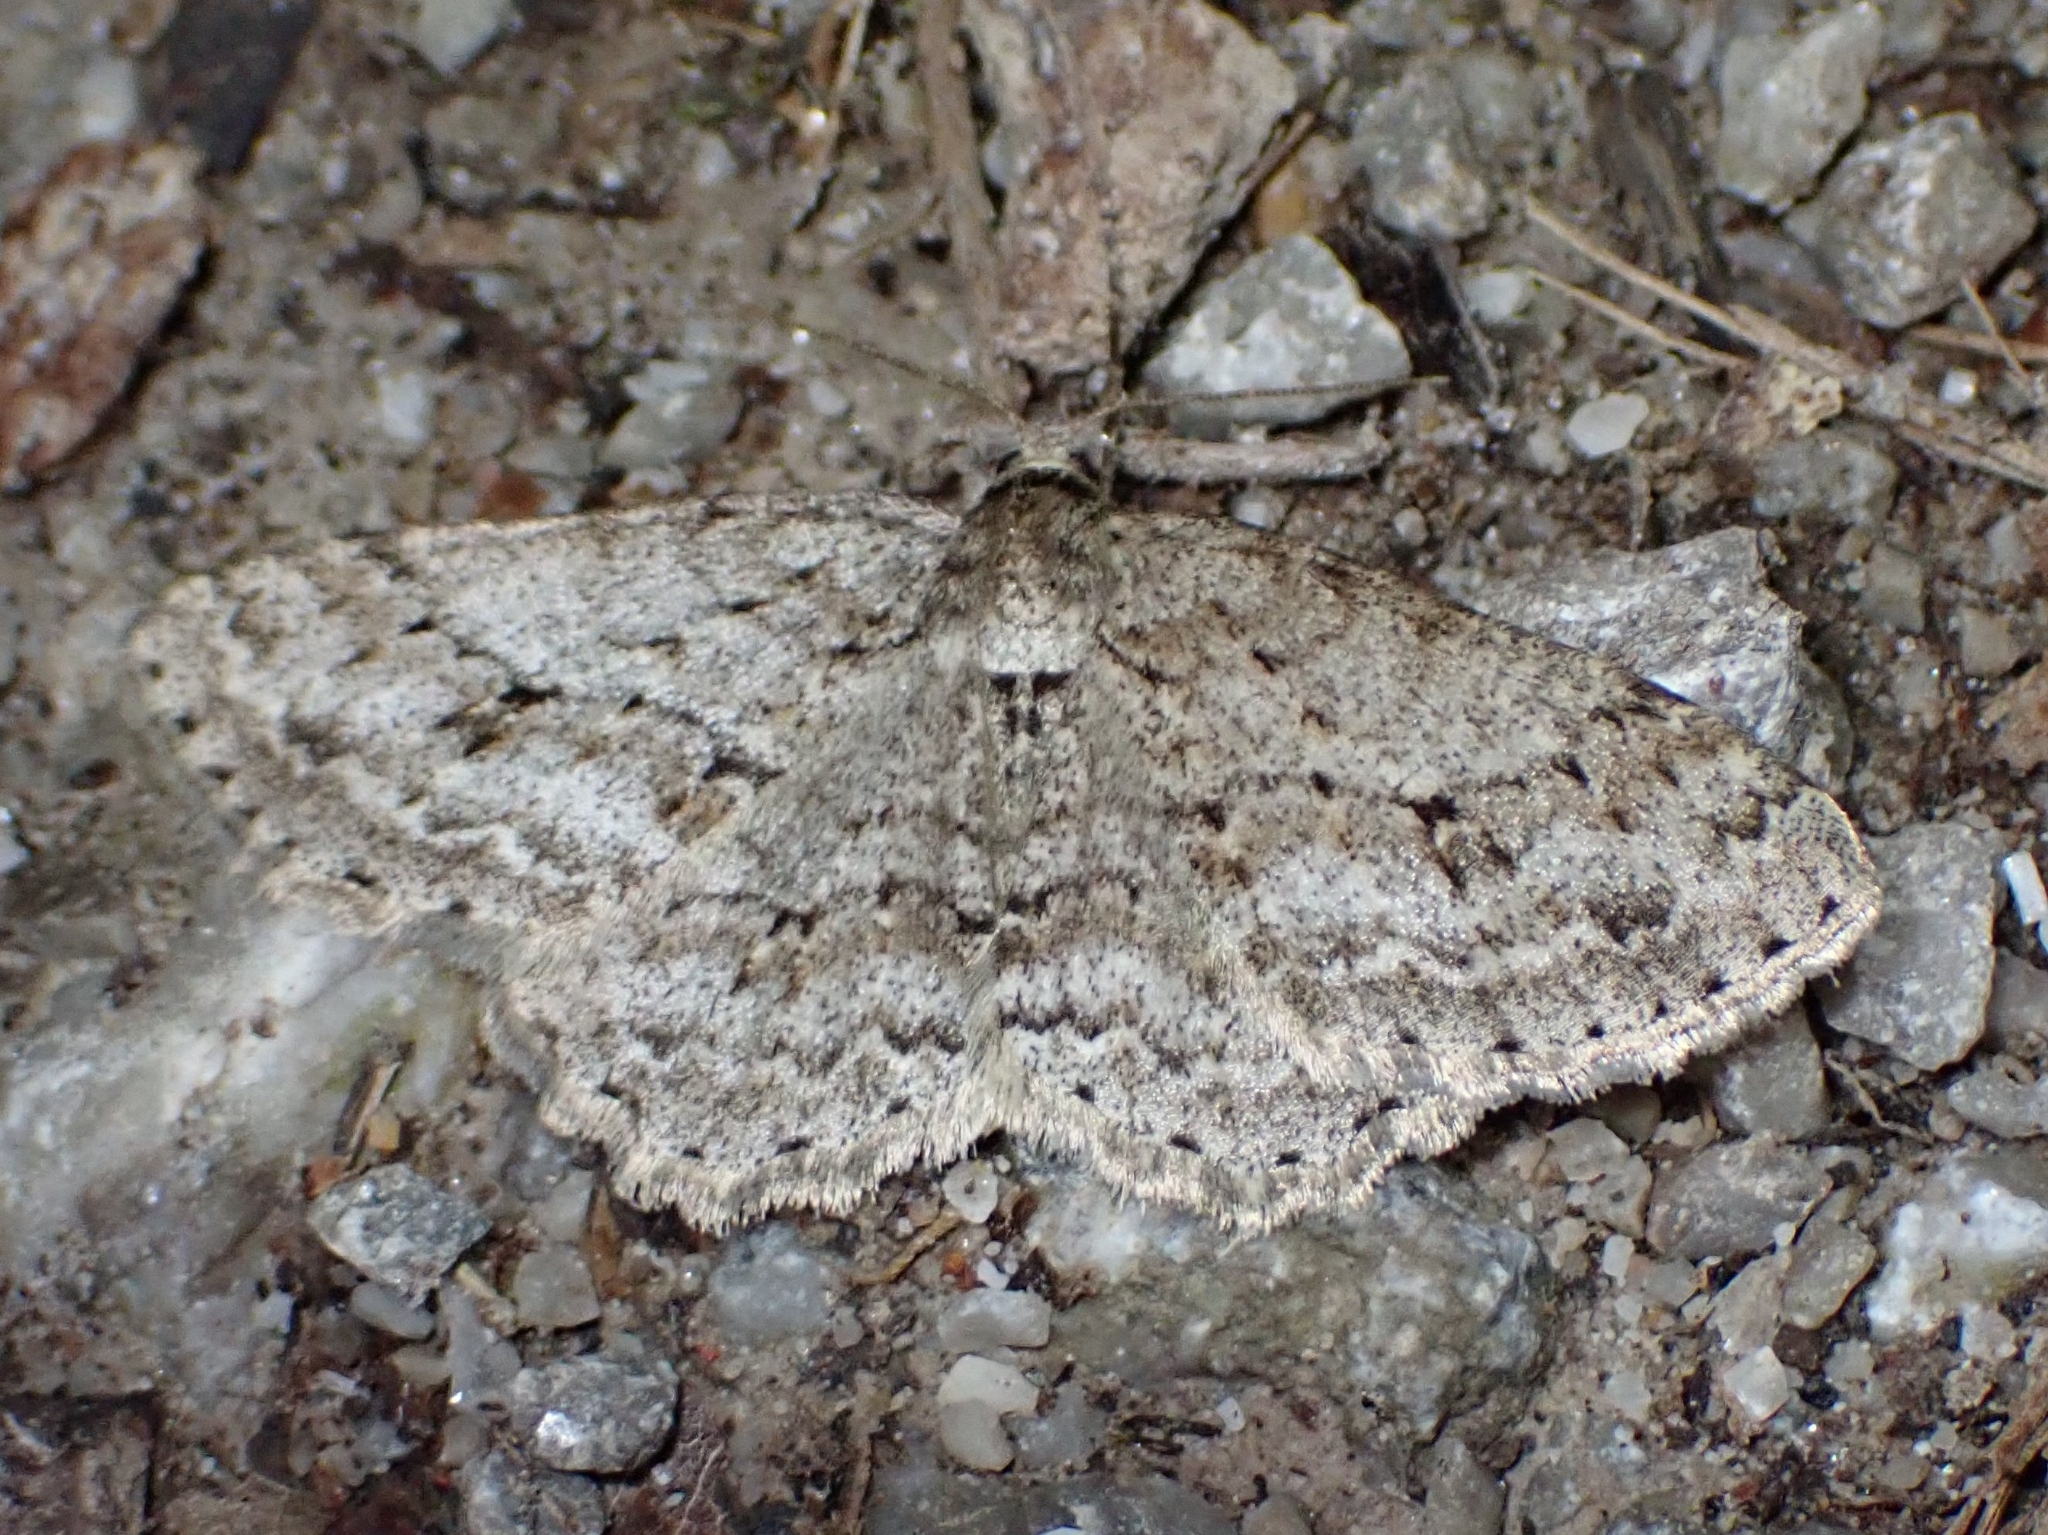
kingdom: Animalia
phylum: Arthropoda
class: Insecta
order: Lepidoptera
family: Geometridae
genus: Ectropis
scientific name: Ectropis crepuscularia
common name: Engrailed
